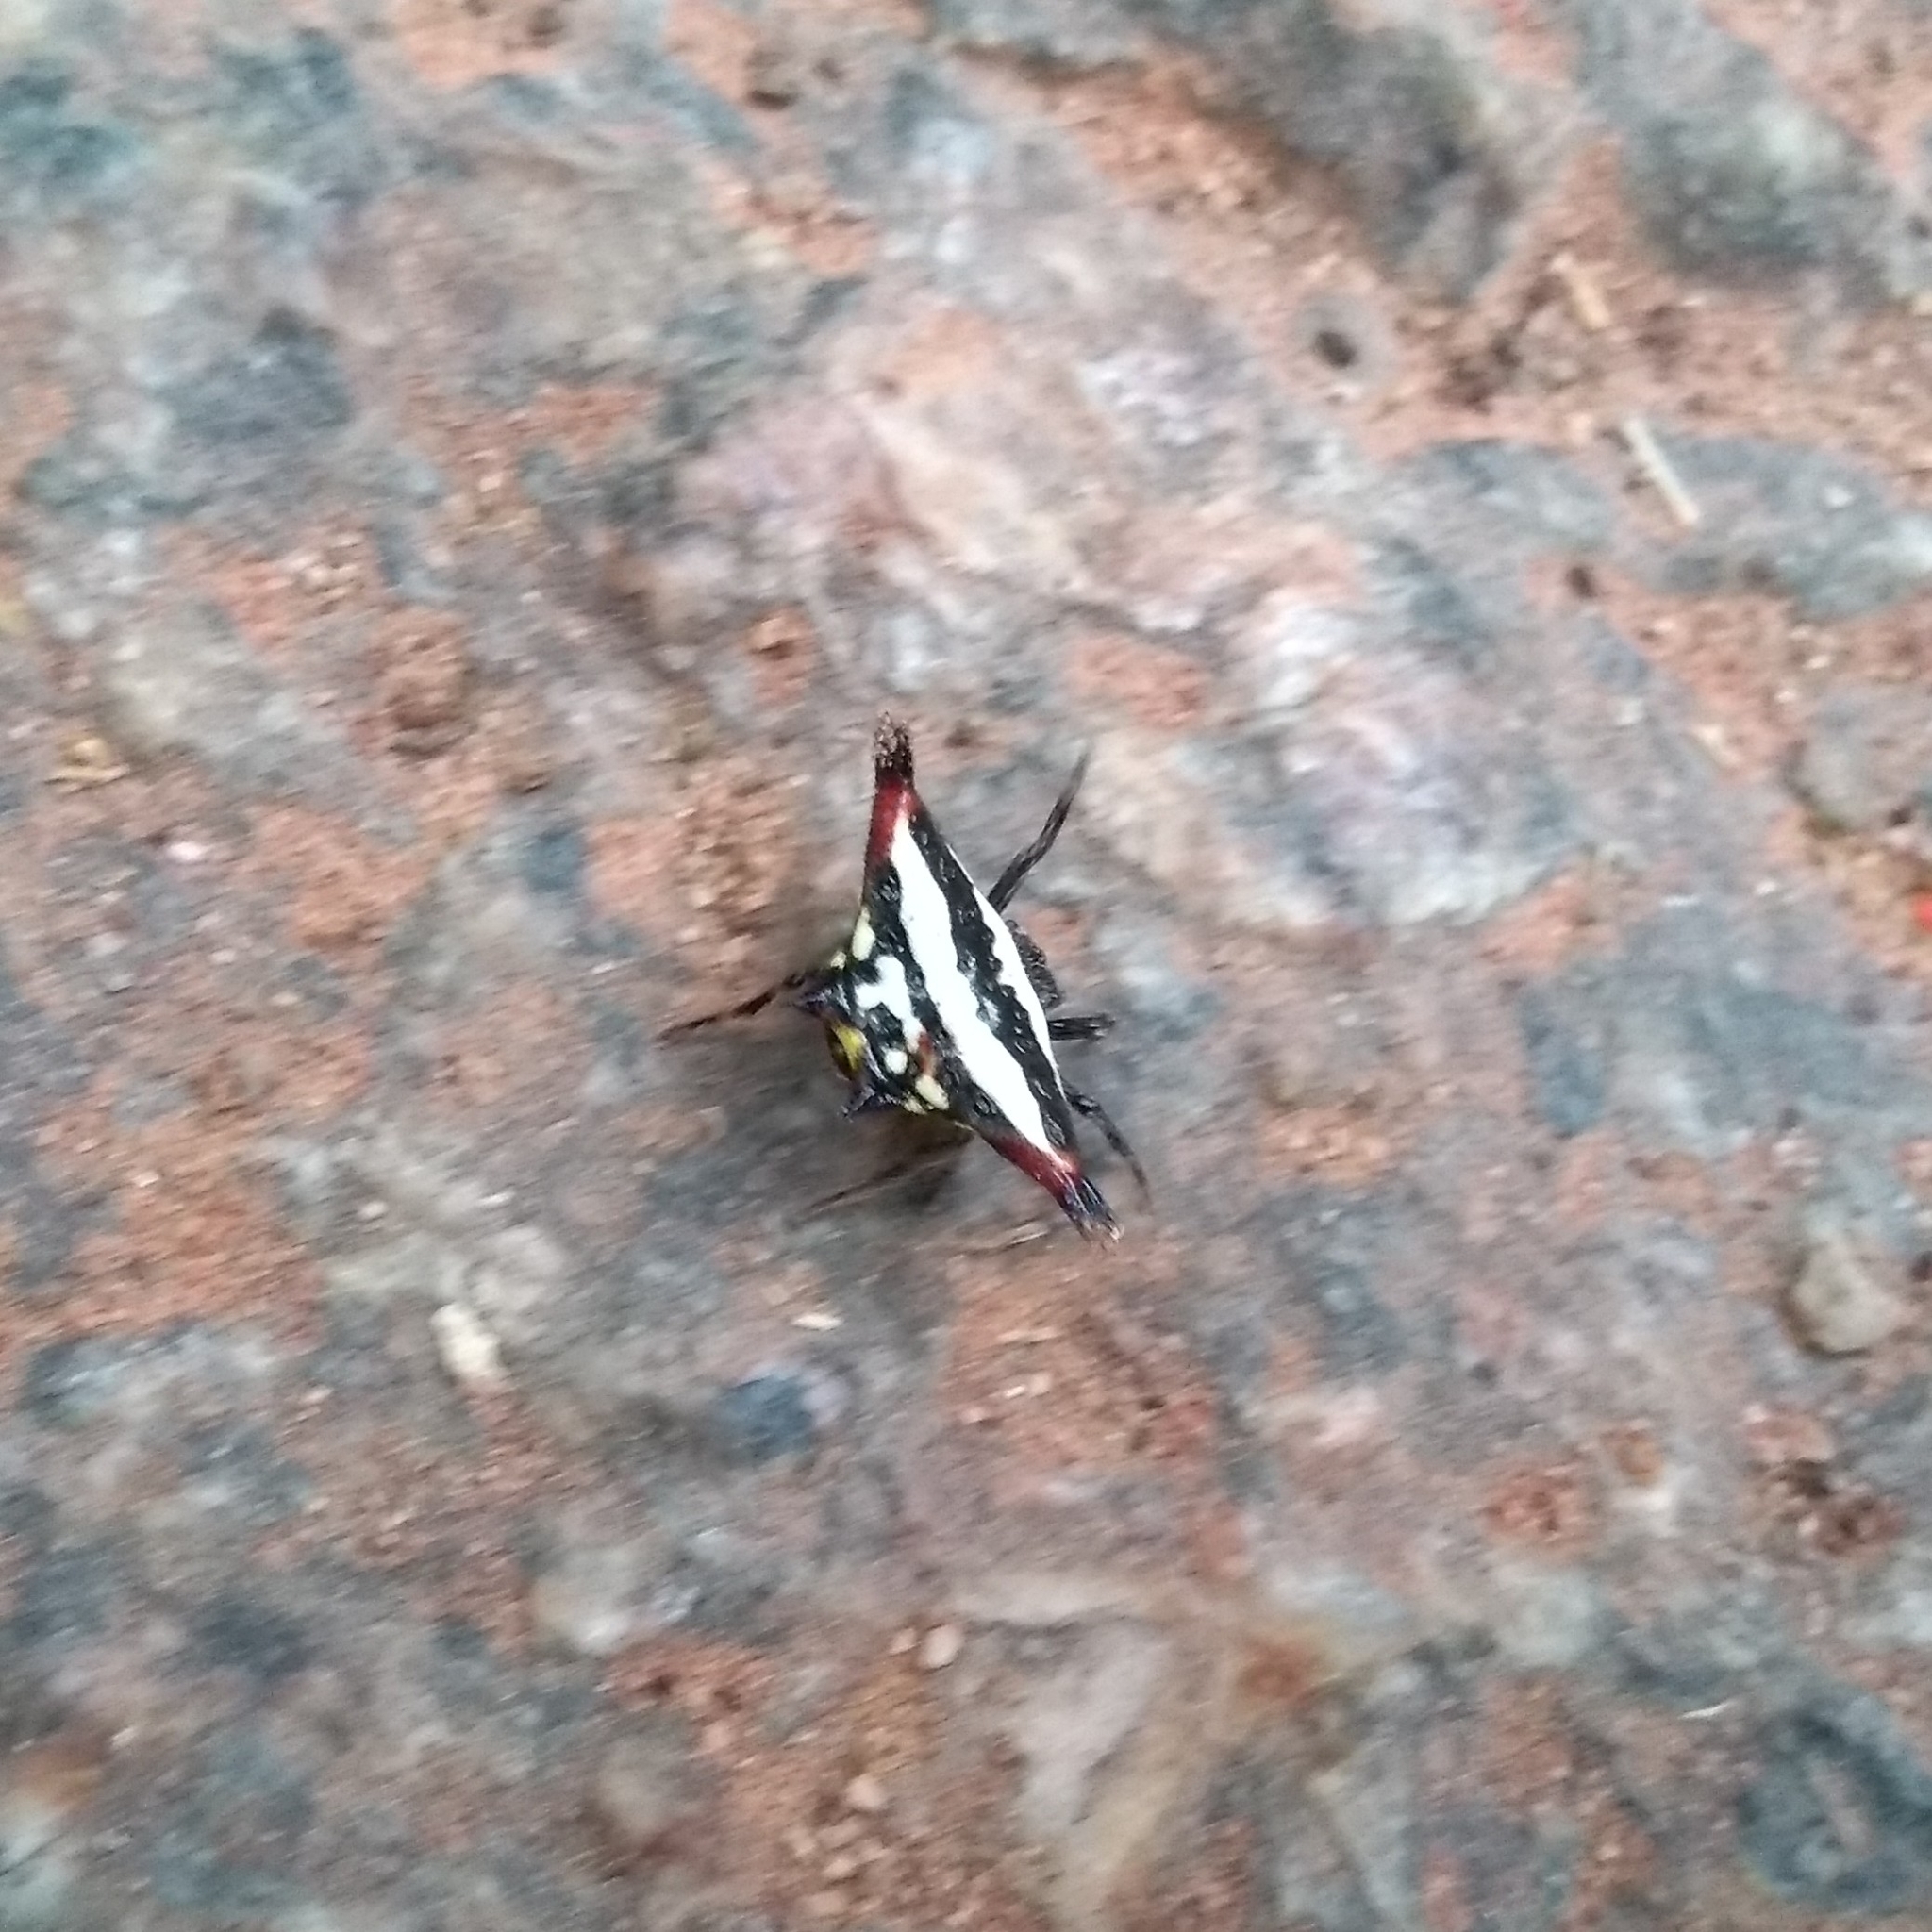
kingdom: Animalia
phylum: Arthropoda
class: Arachnida
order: Araneae
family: Araneidae
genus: Gasteracantha
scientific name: Gasteracantha geminata
